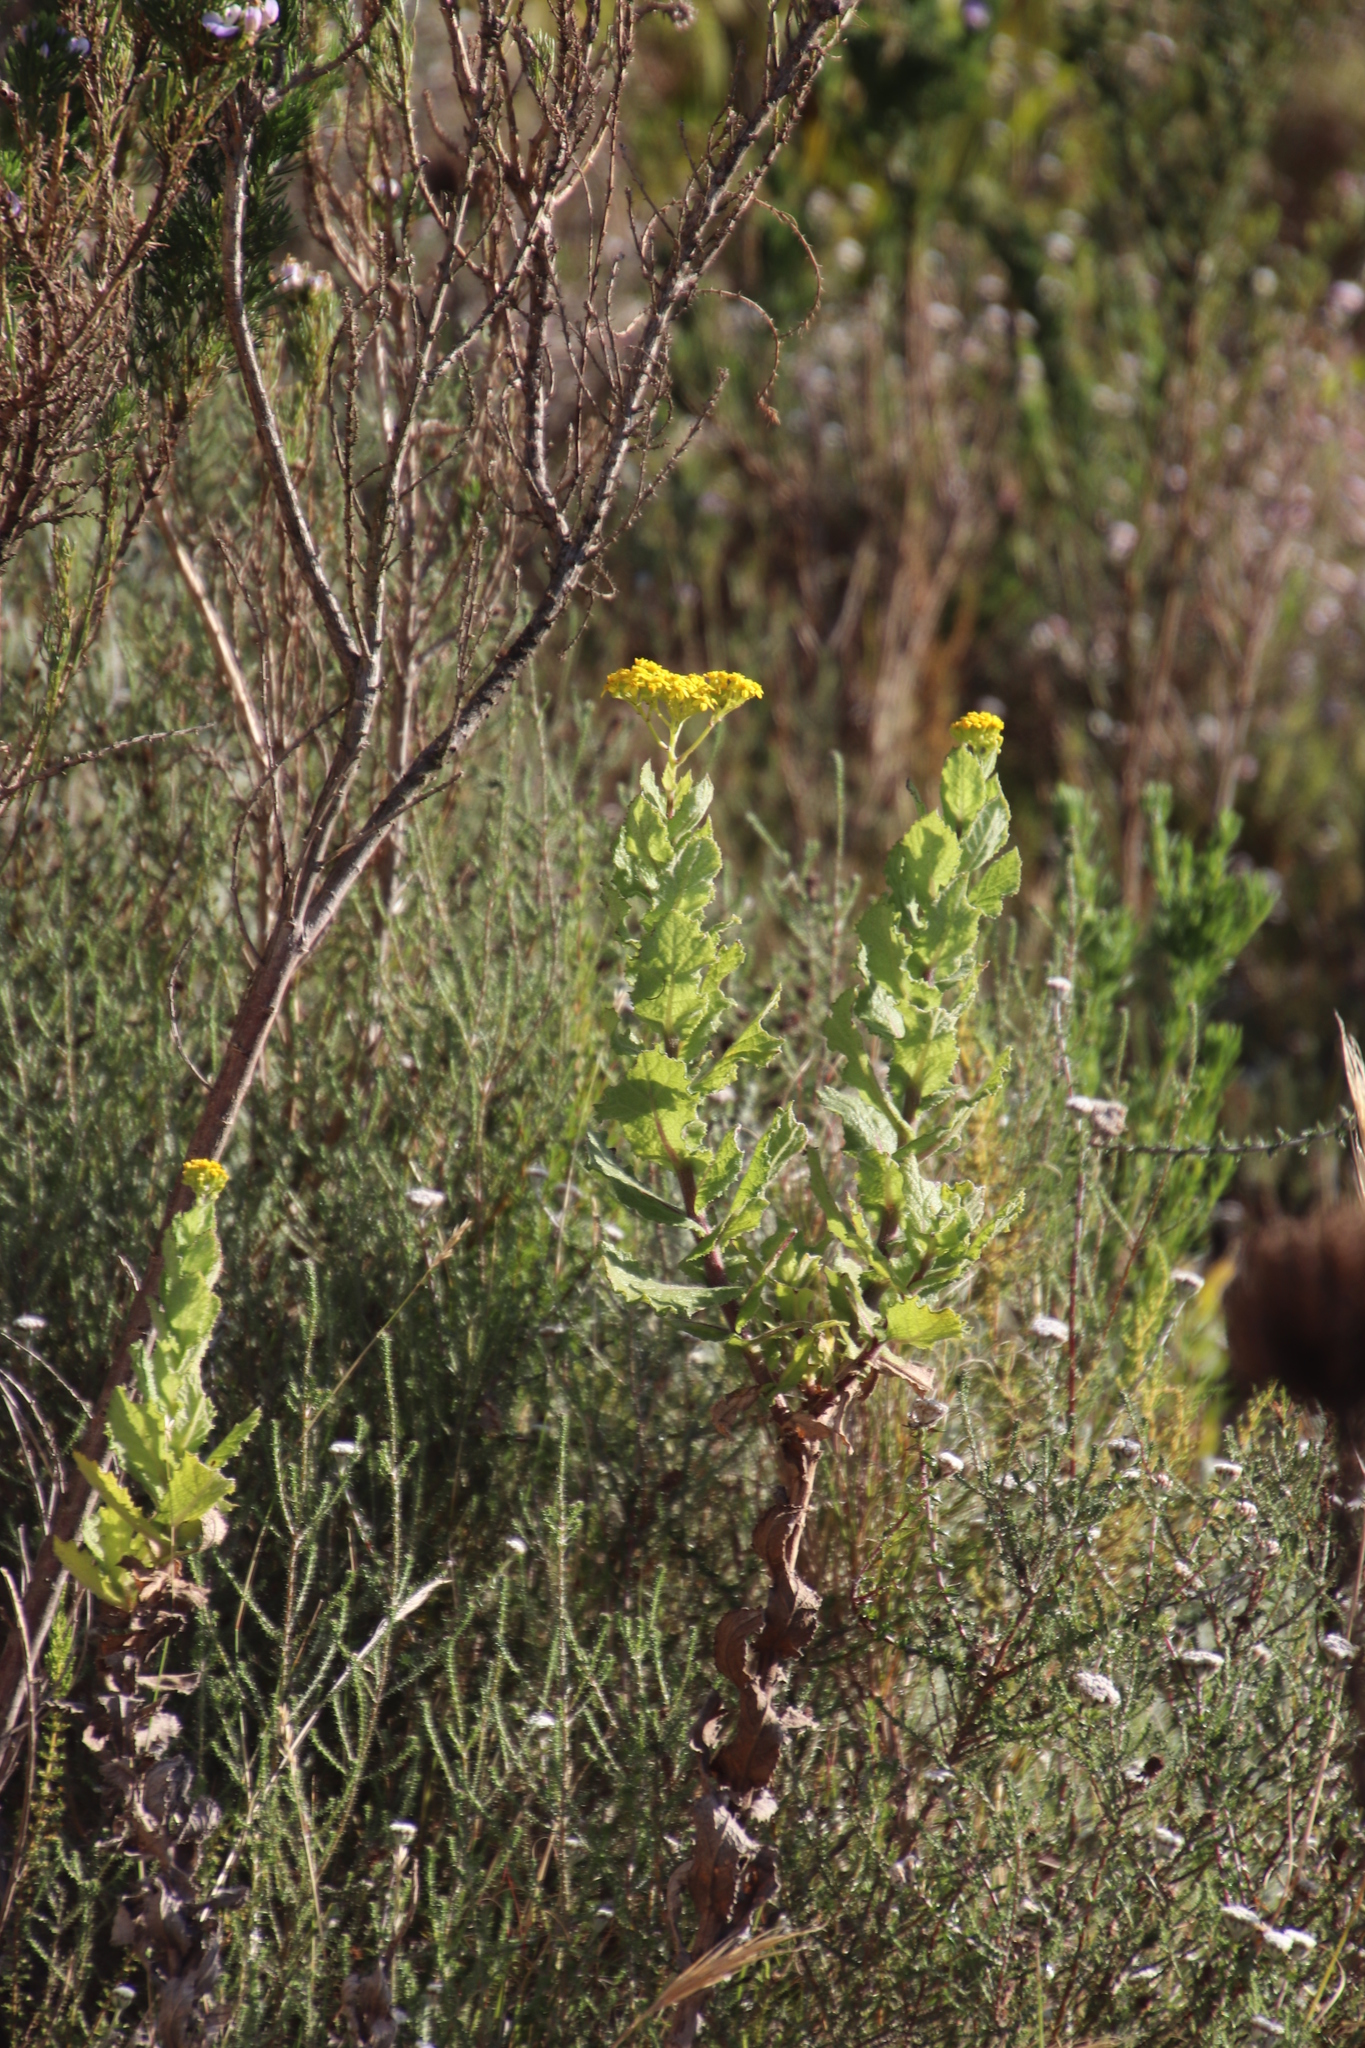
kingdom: Plantae
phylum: Tracheophyta
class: Magnoliopsida
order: Asterales
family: Asteraceae
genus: Senecio
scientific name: Senecio rigidus
